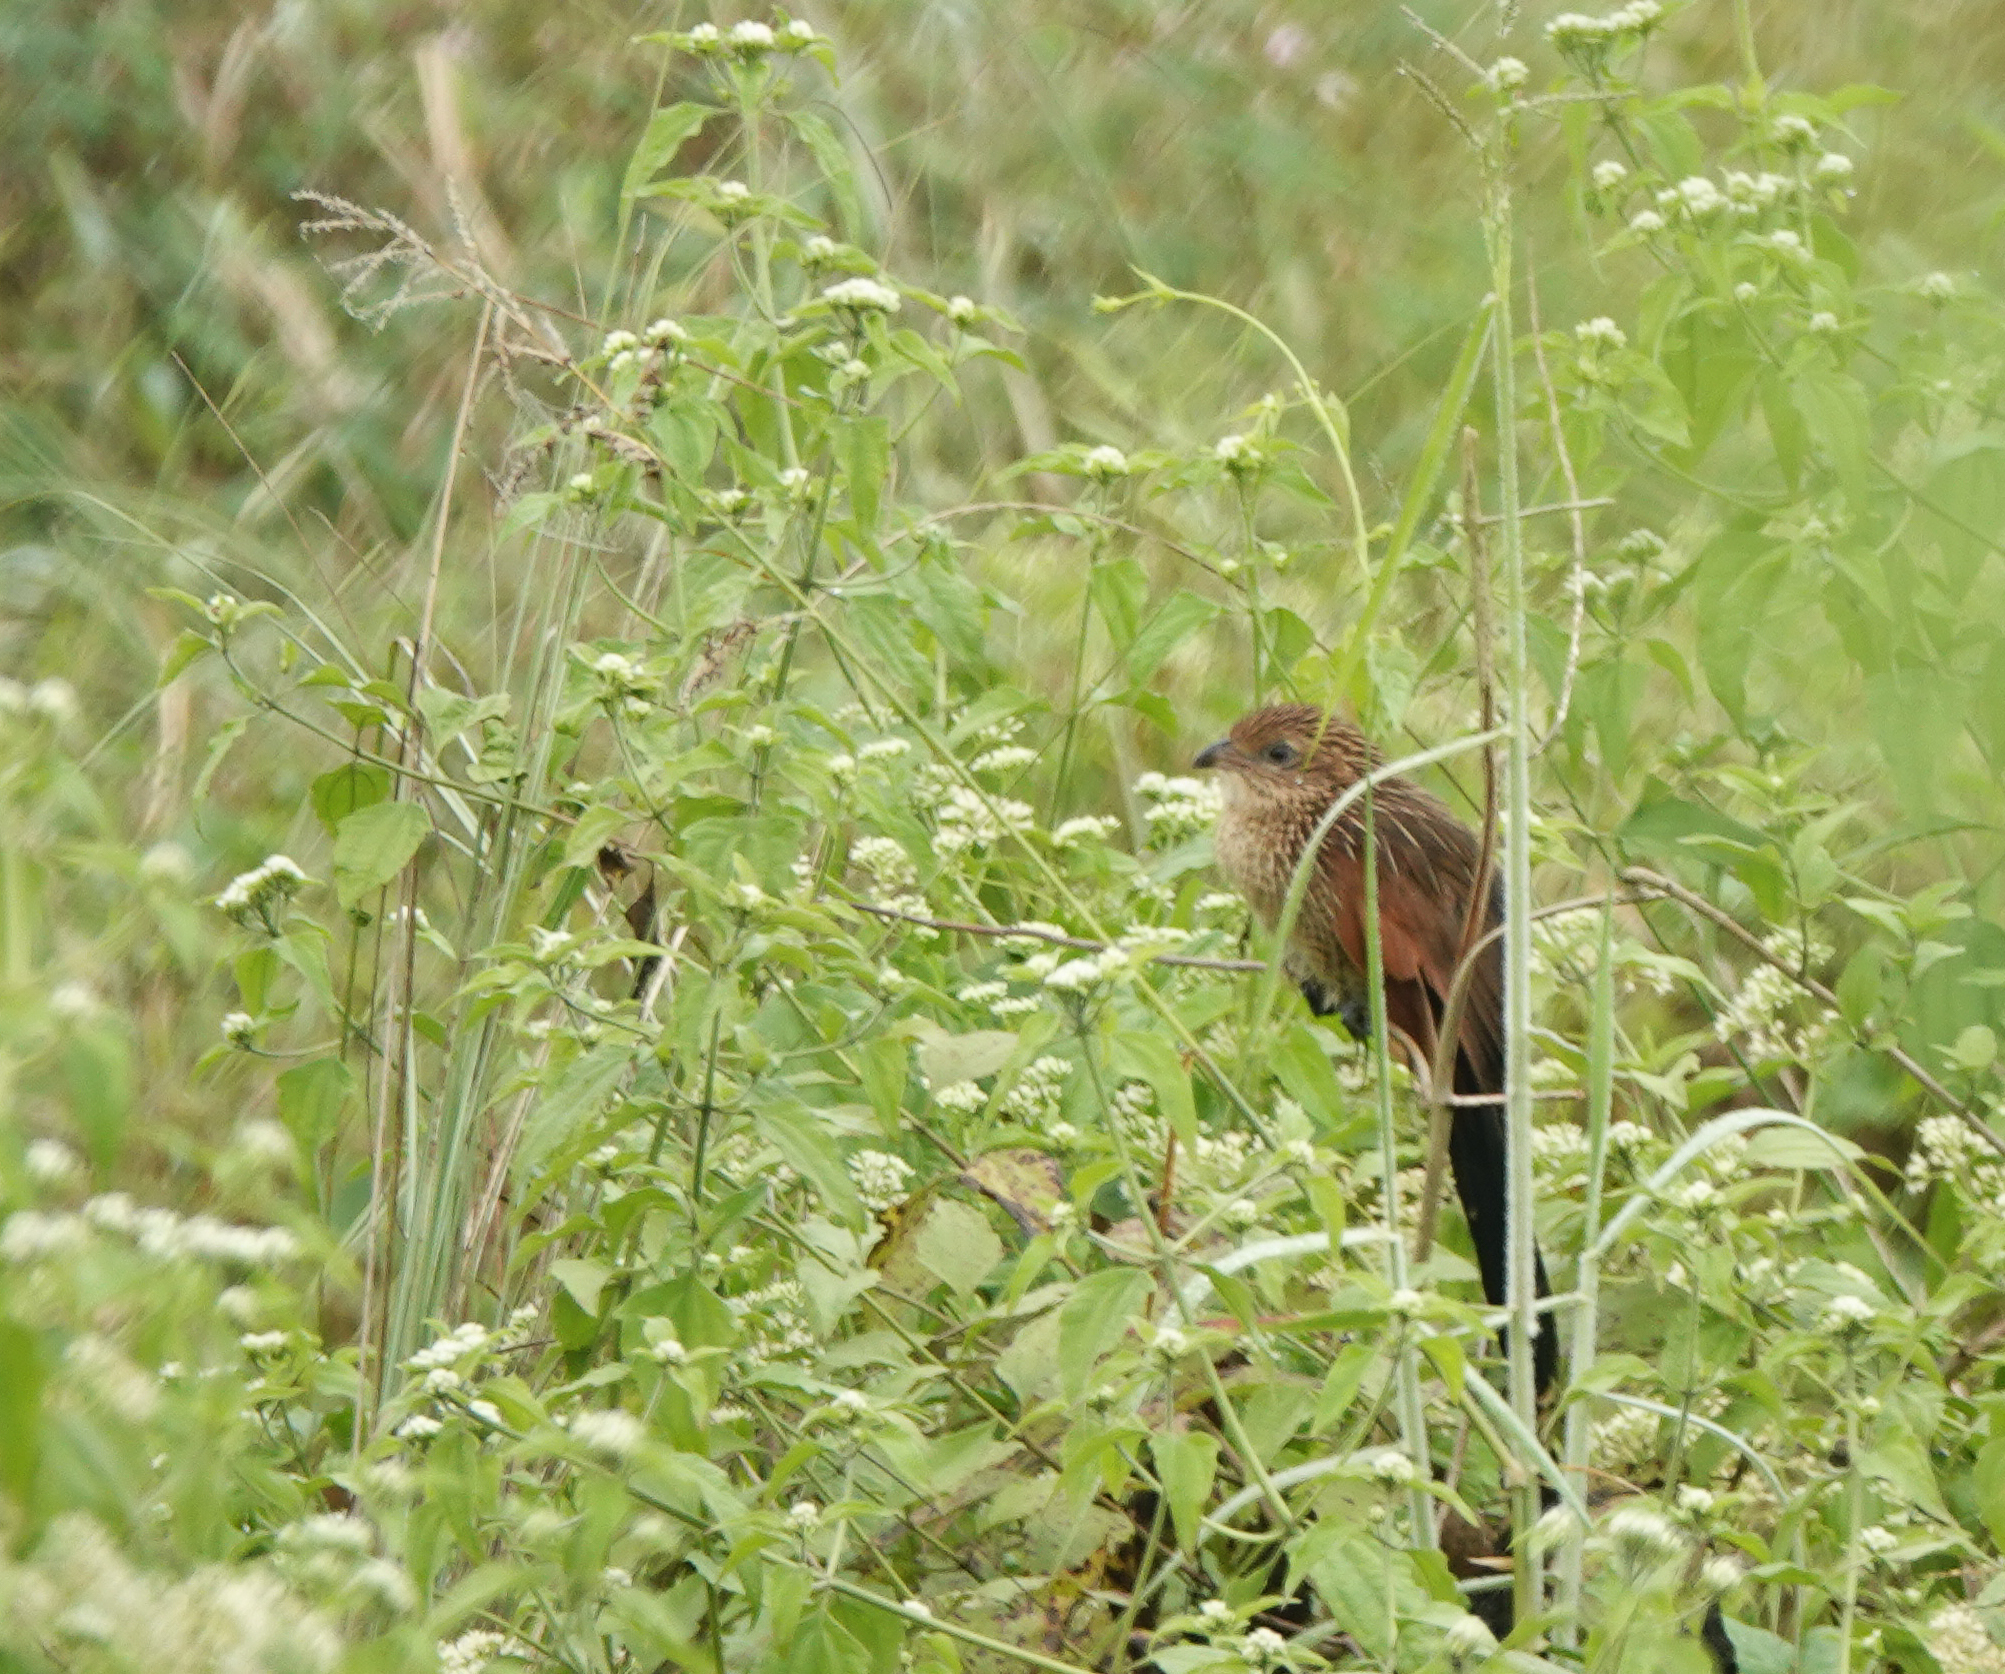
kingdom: Animalia
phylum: Chordata
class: Aves
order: Cuculiformes
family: Cuculidae
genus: Centropus
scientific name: Centropus bengalensis
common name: Lesser coucal
